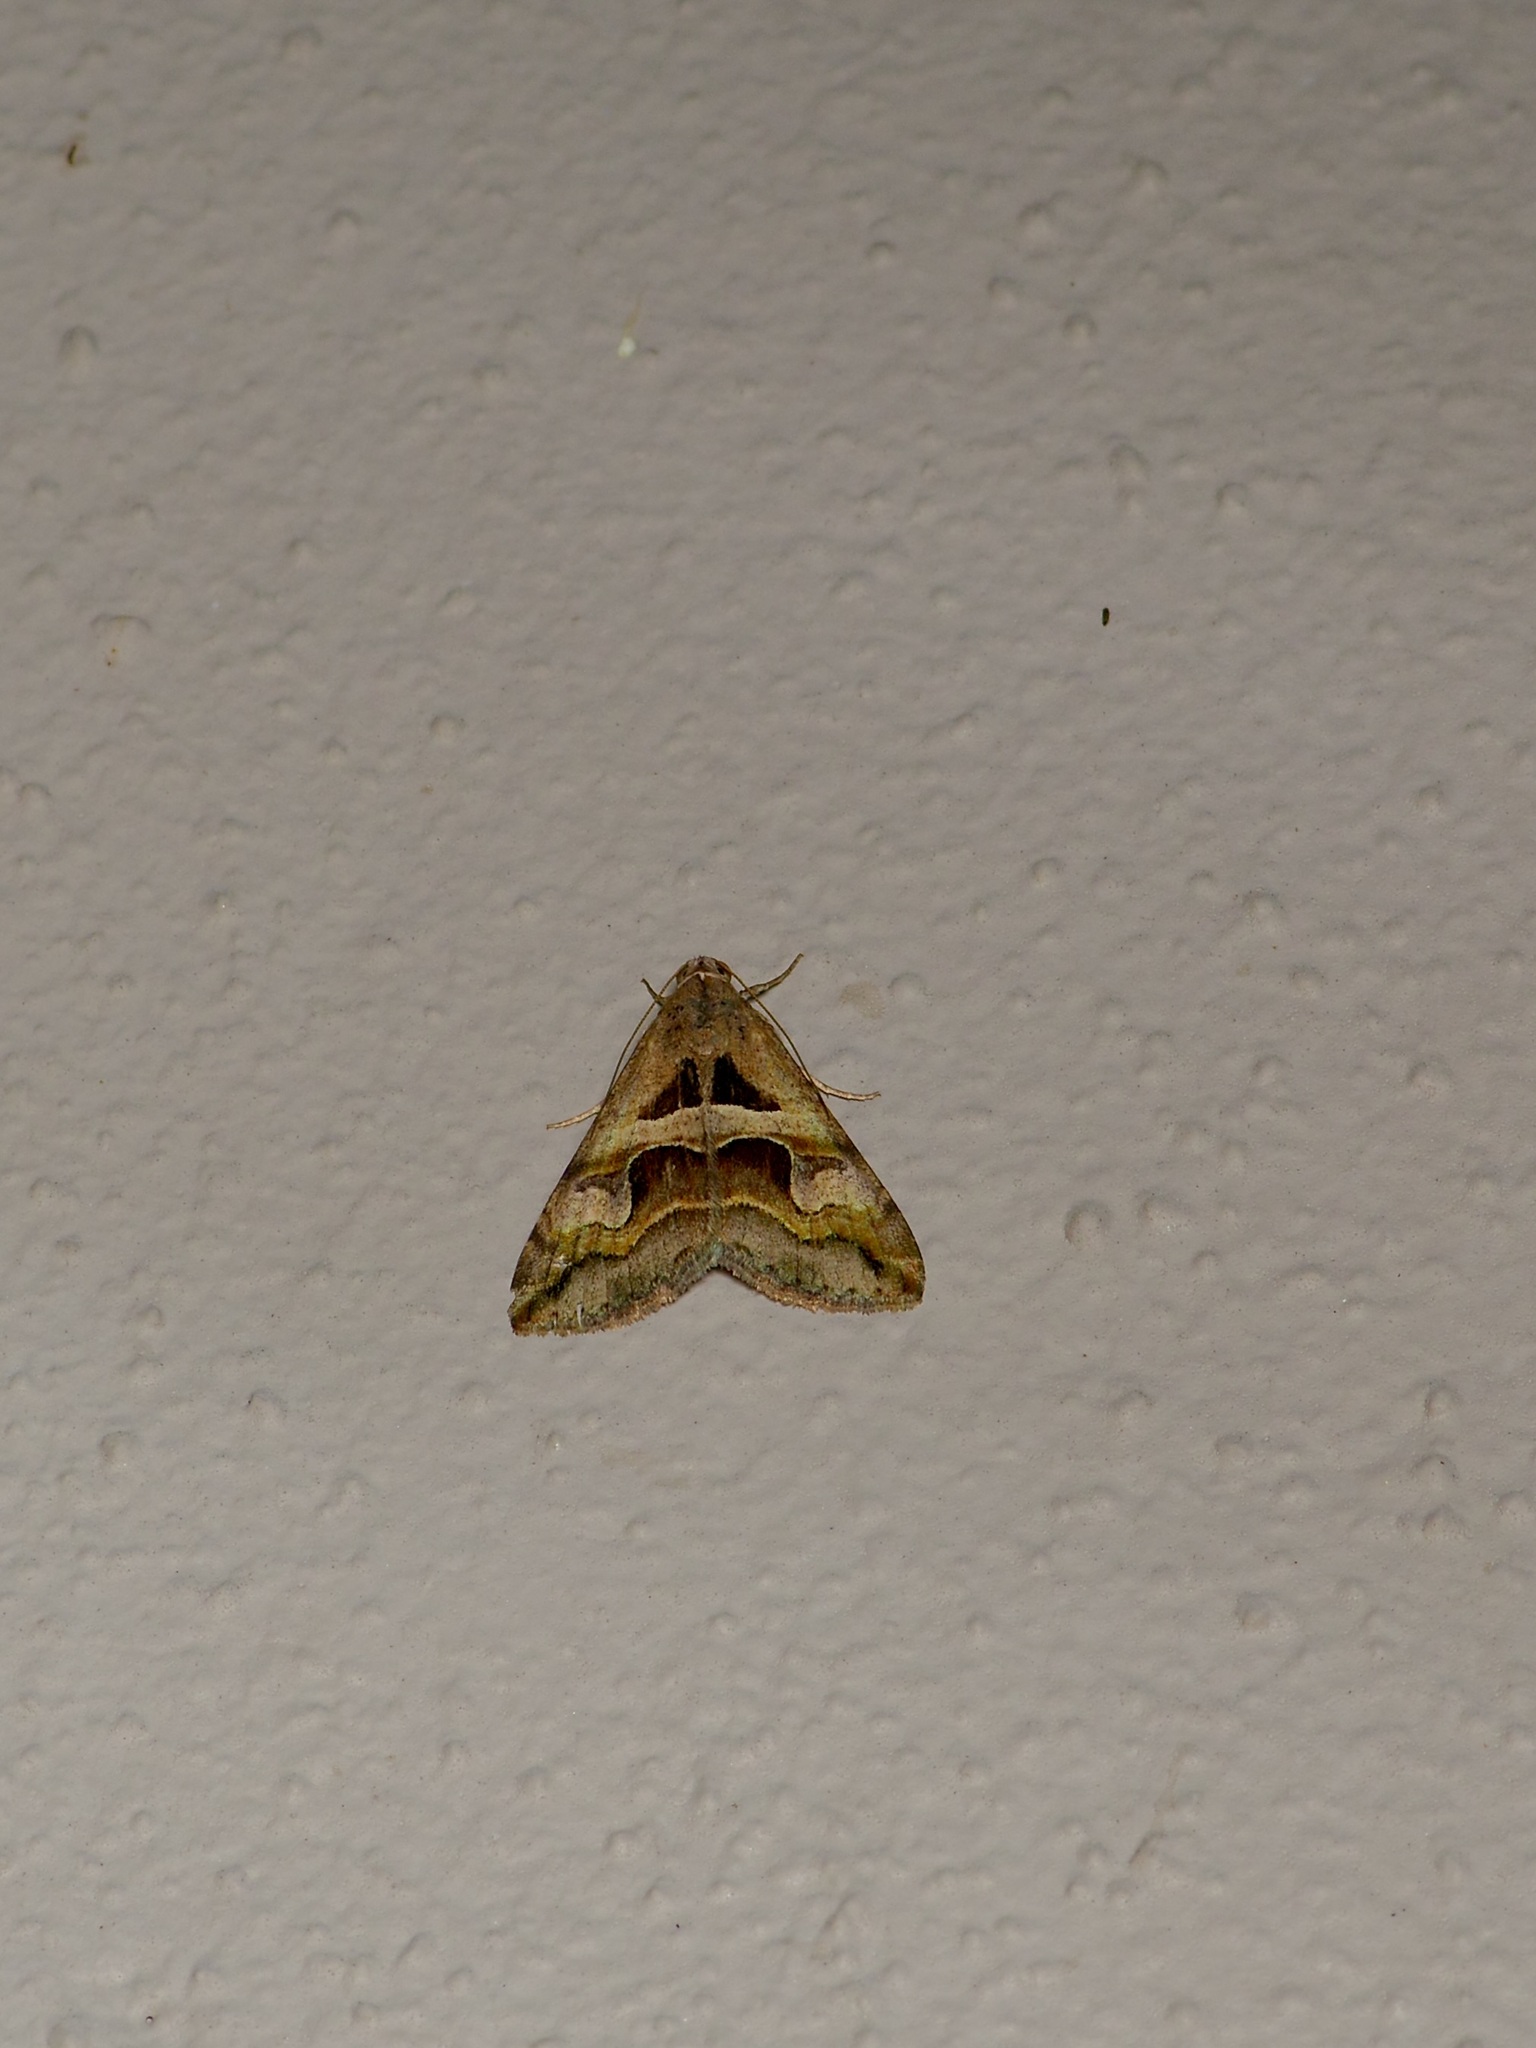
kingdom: Animalia
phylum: Arthropoda
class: Insecta
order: Lepidoptera
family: Erebidae
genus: Melipotis
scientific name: Melipotis cellaris
